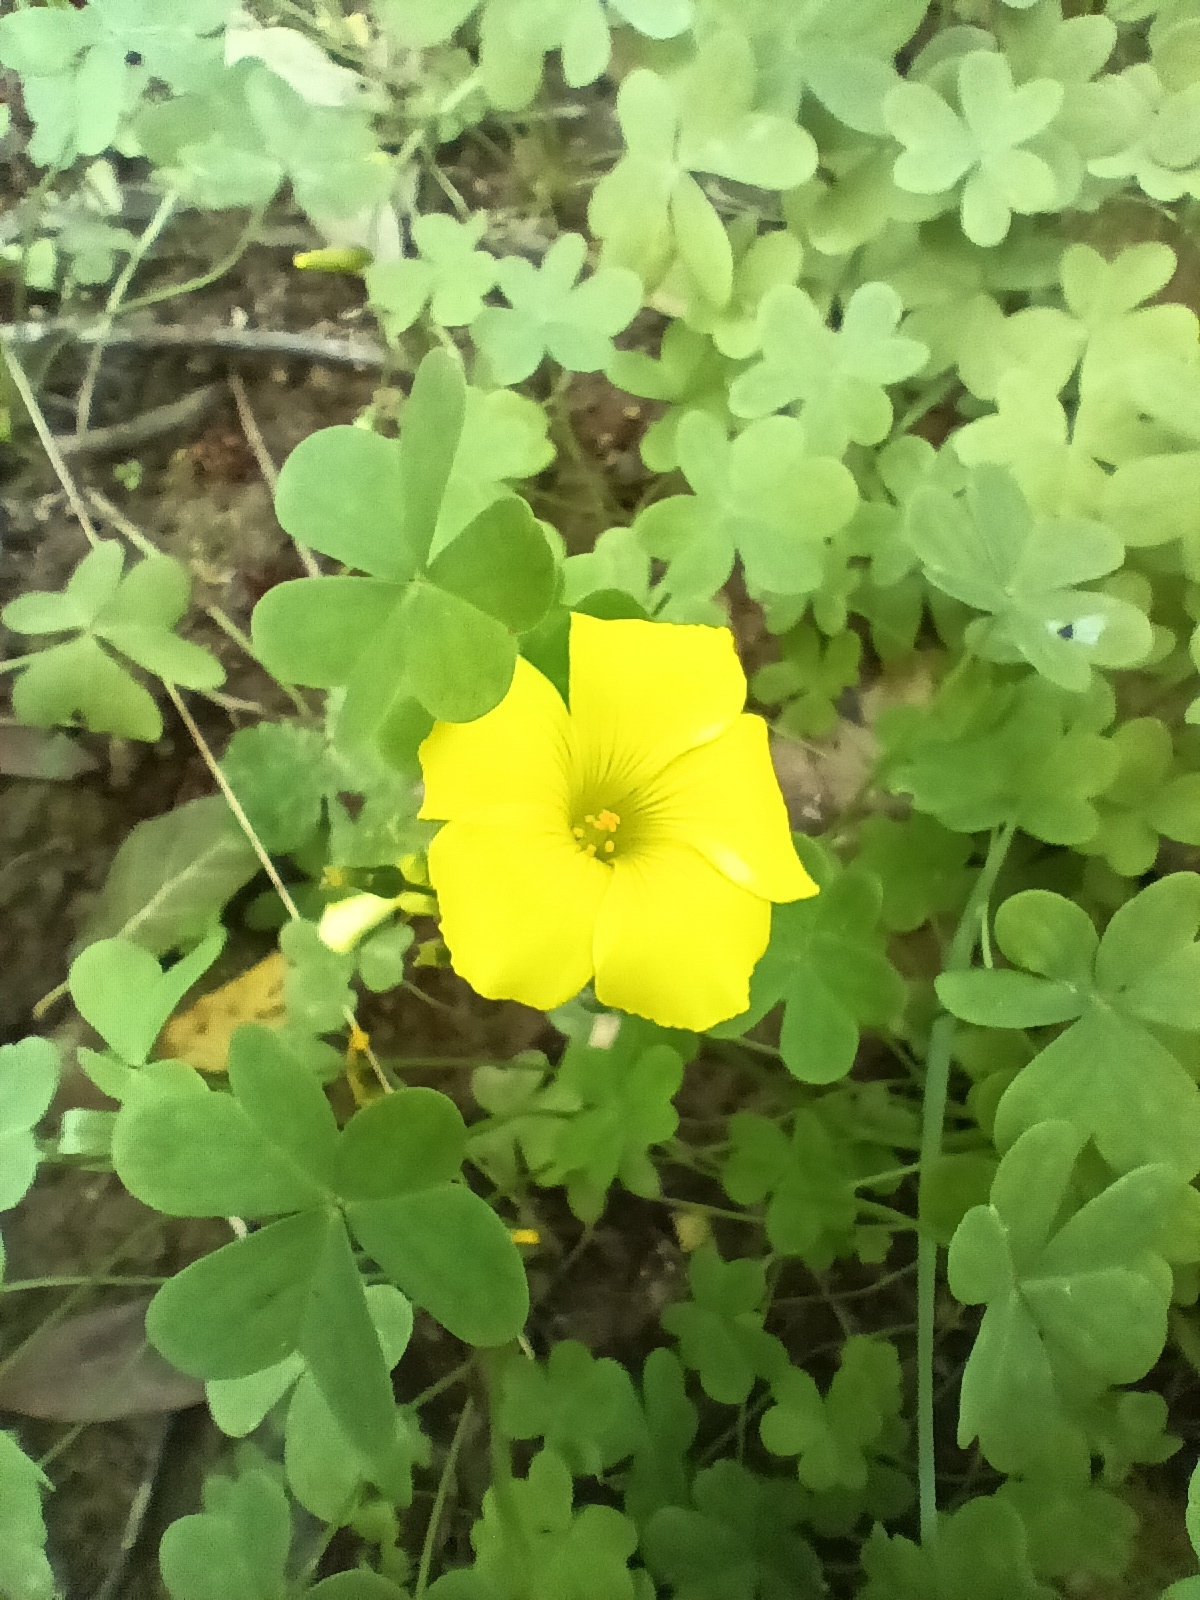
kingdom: Plantae
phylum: Tracheophyta
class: Magnoliopsida
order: Oxalidales
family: Oxalidaceae
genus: Oxalis
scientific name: Oxalis pes-caprae
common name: Bermuda-buttercup
